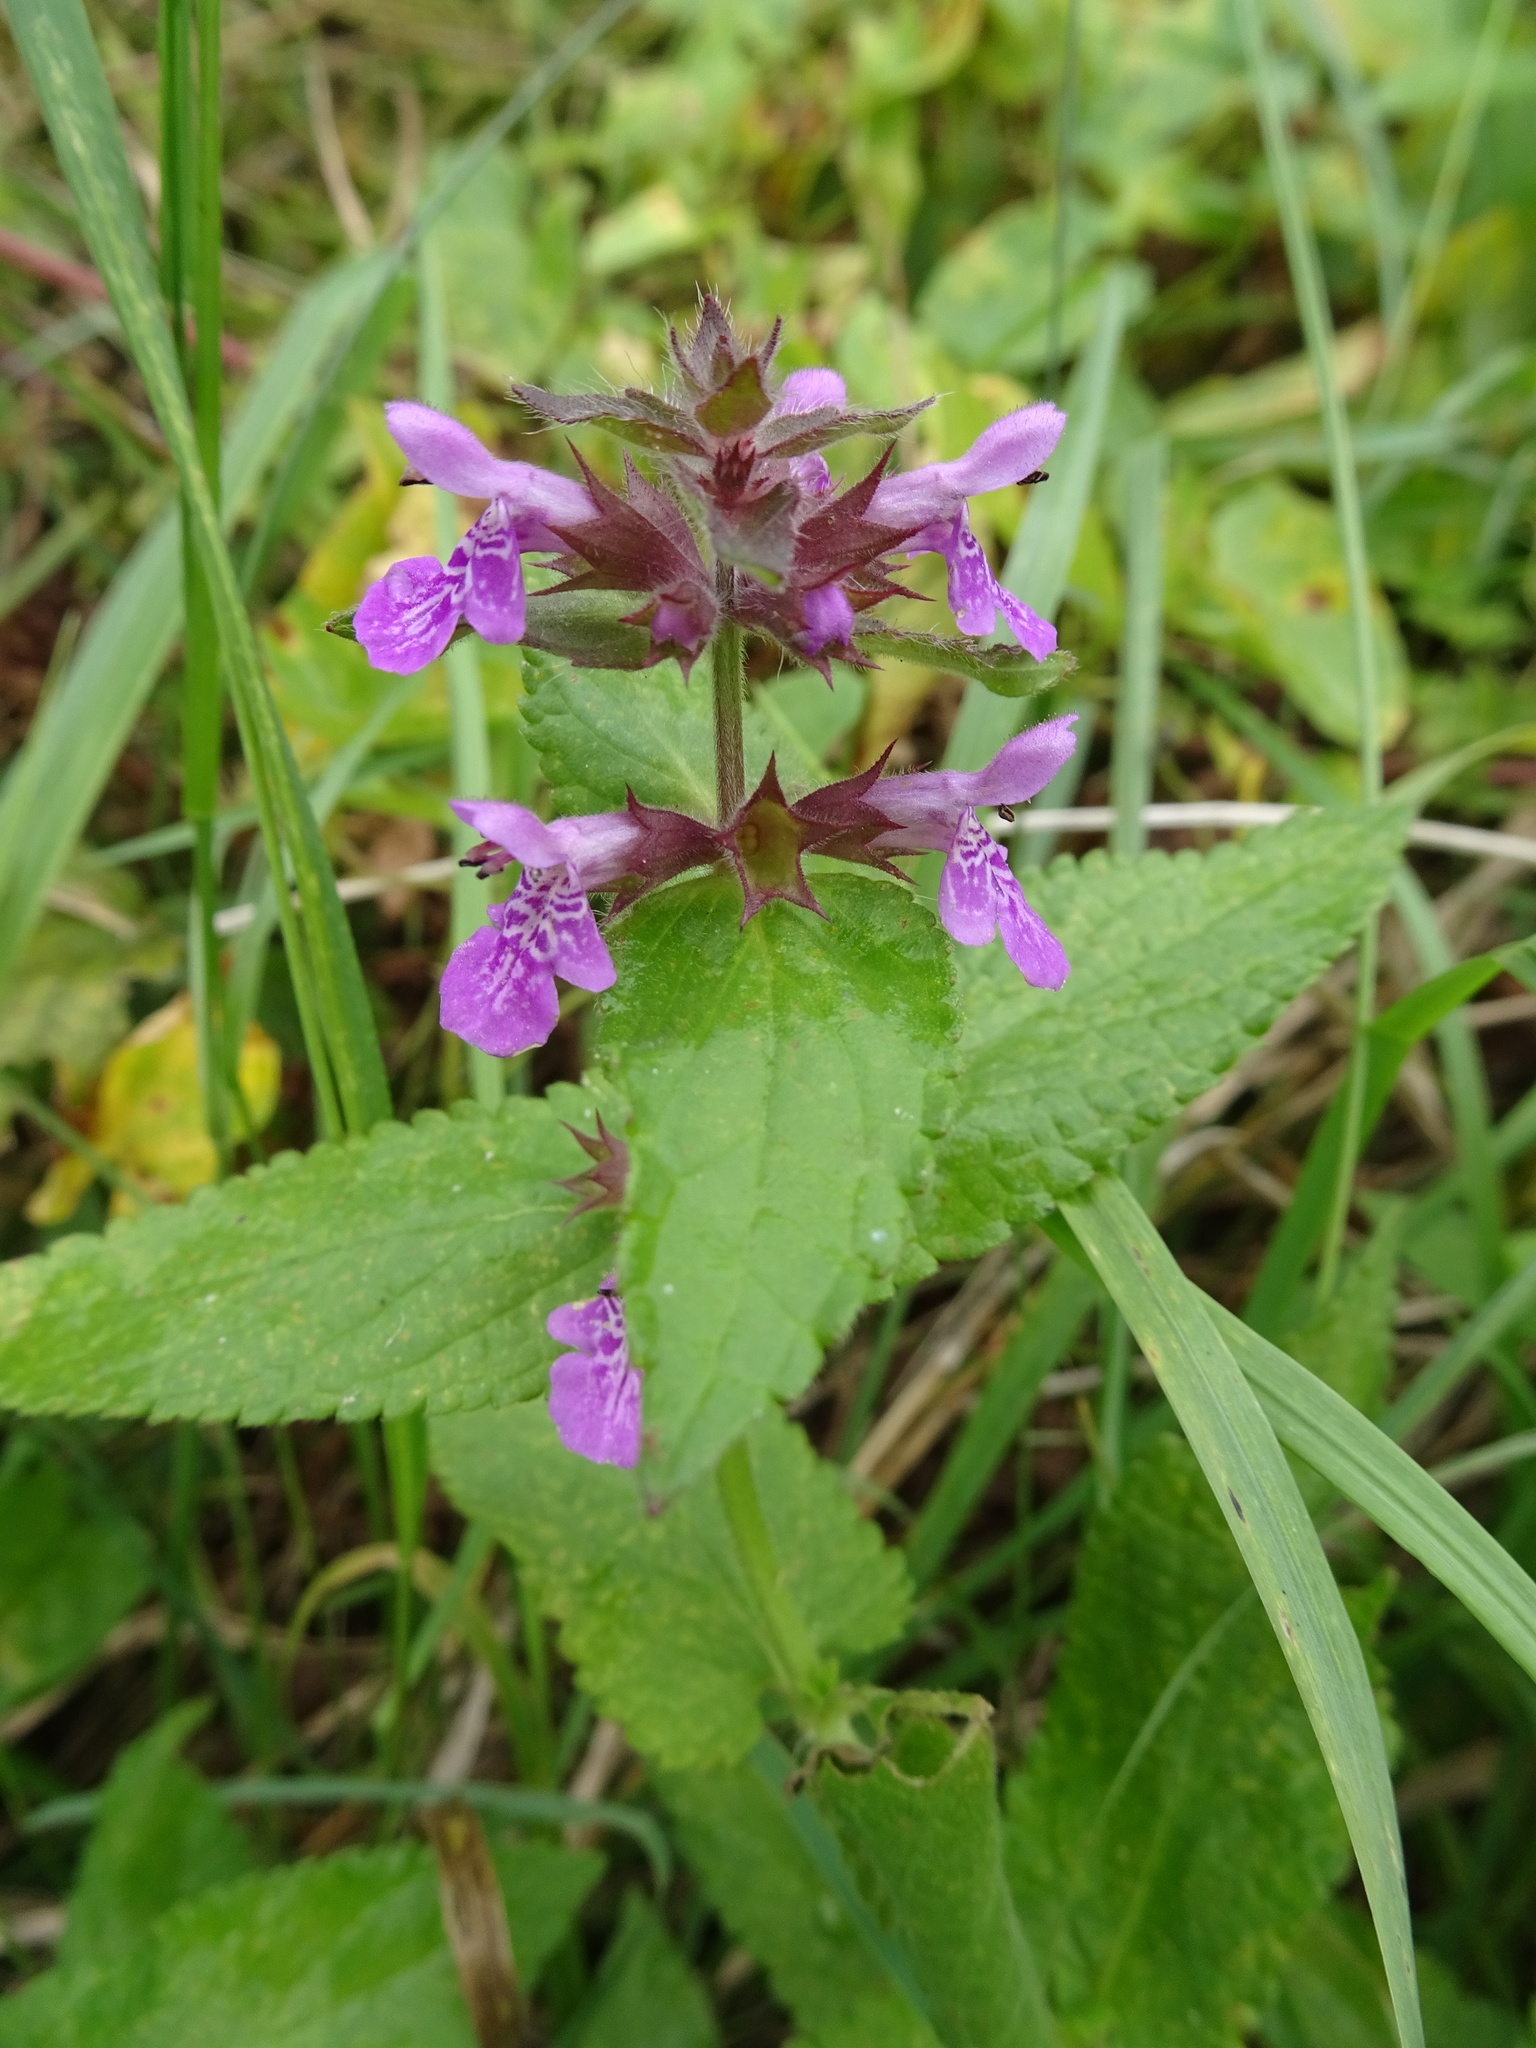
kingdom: Plantae
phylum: Tracheophyta
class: Magnoliopsida
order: Lamiales
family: Lamiaceae
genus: Stachys
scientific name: Stachys palustris
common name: Marsh woundwort
